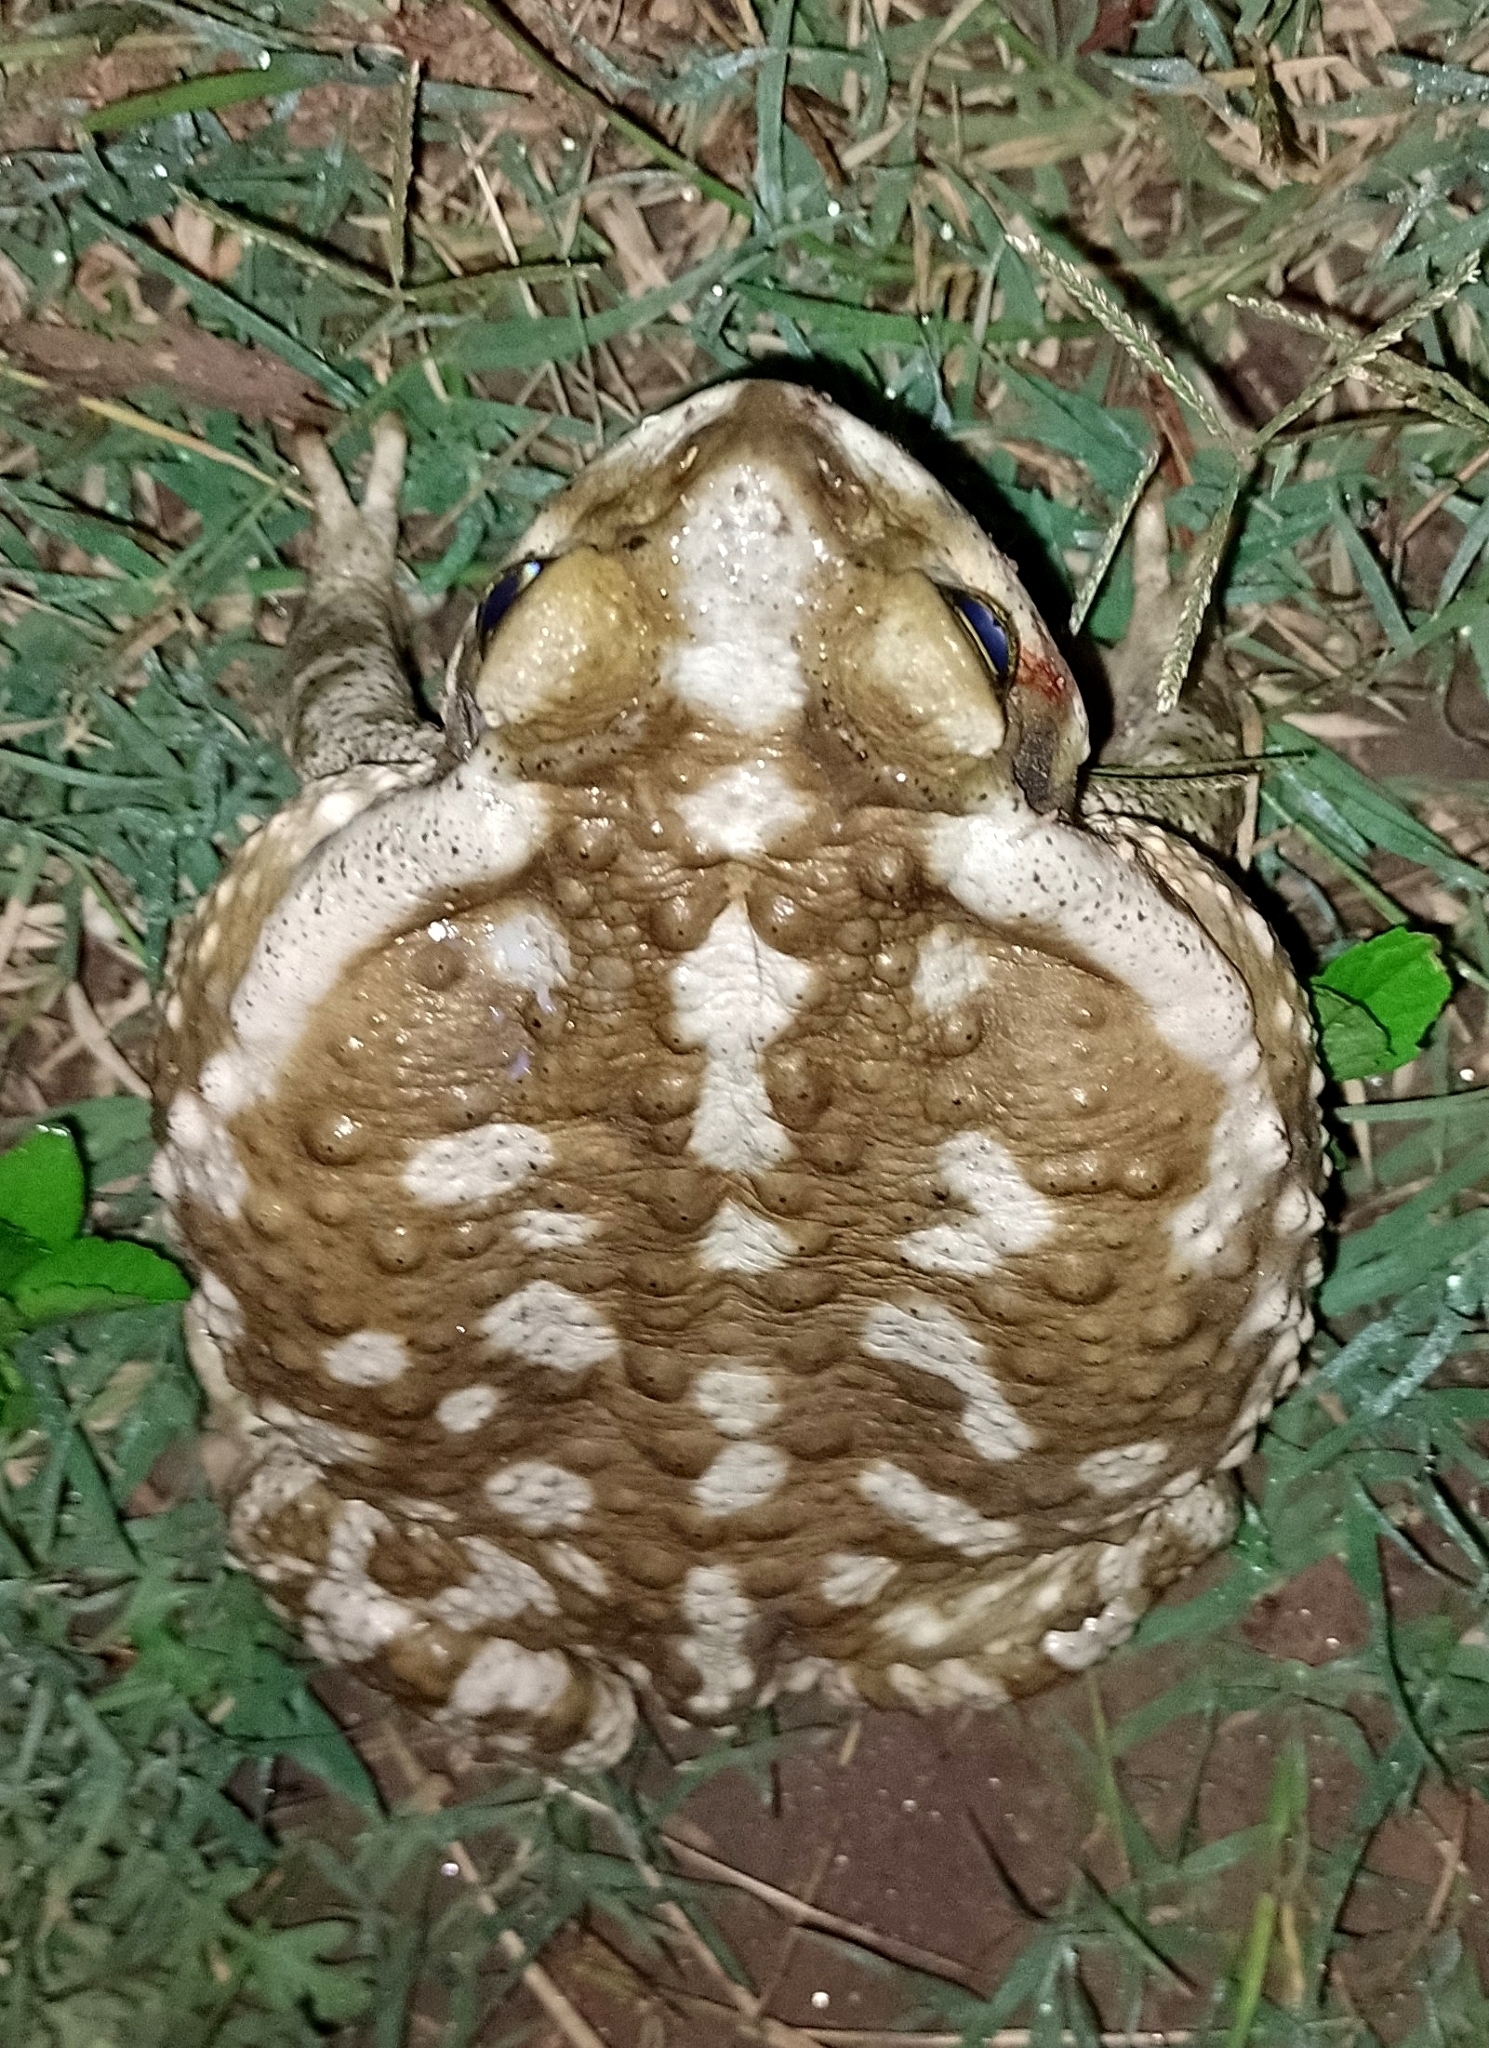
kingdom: Animalia
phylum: Chordata
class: Amphibia
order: Anura
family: Bufonidae
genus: Rhinella
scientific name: Rhinella arenarum
